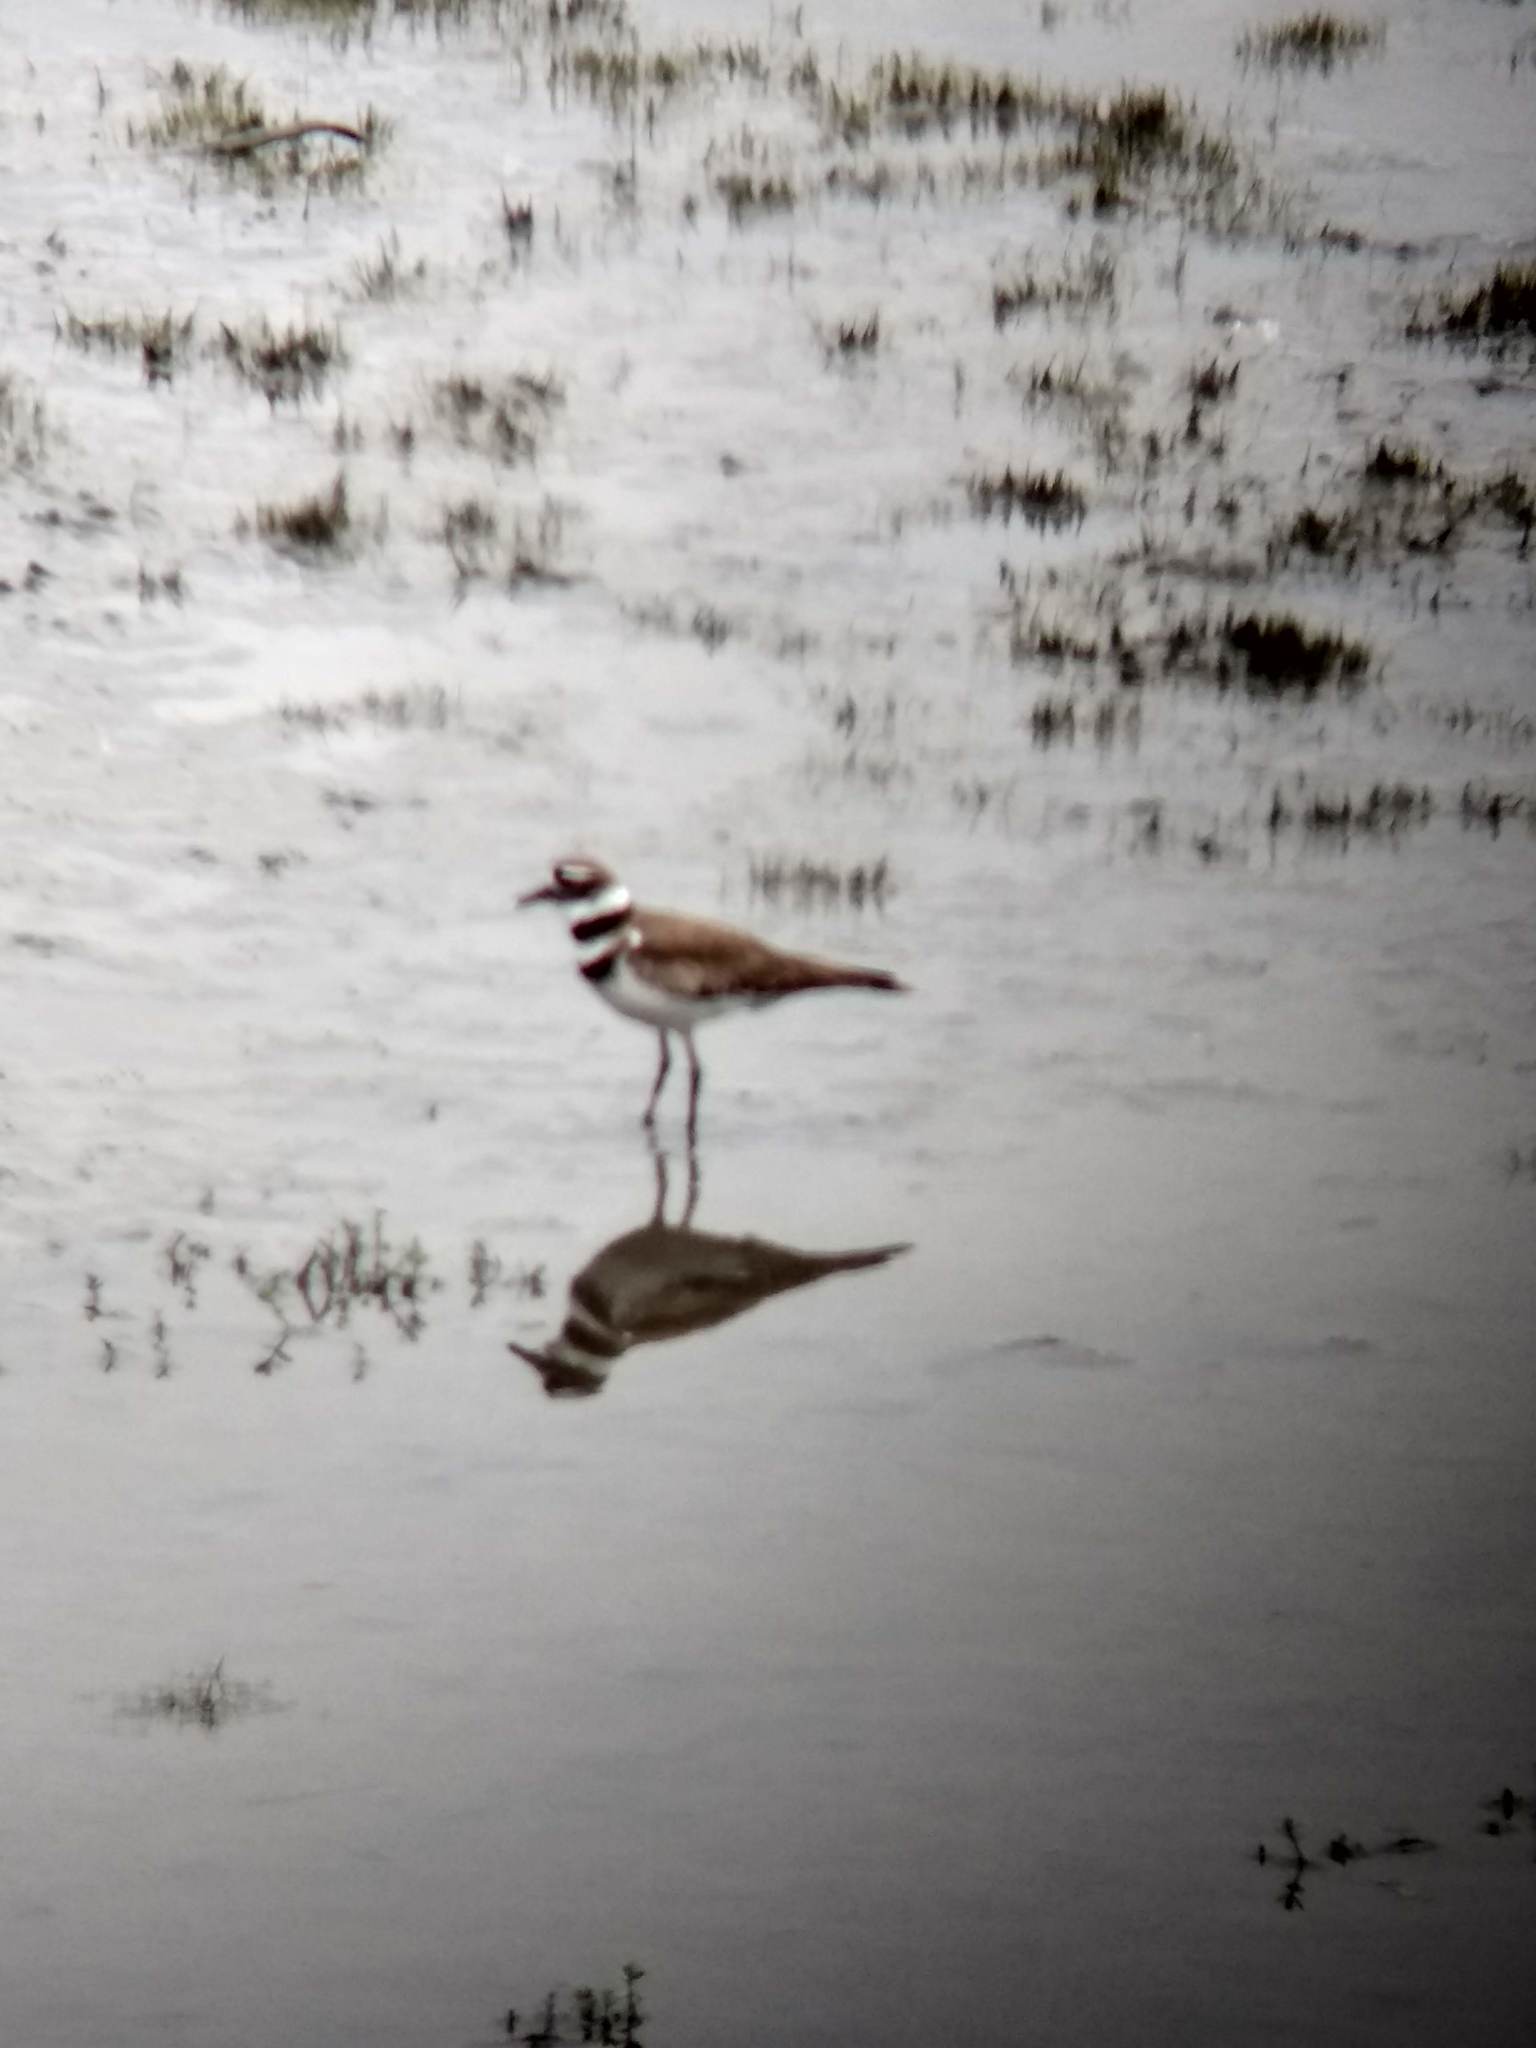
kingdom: Animalia
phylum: Chordata
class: Aves
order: Charadriiformes
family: Charadriidae
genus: Charadrius
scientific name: Charadrius vociferus
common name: Killdeer
